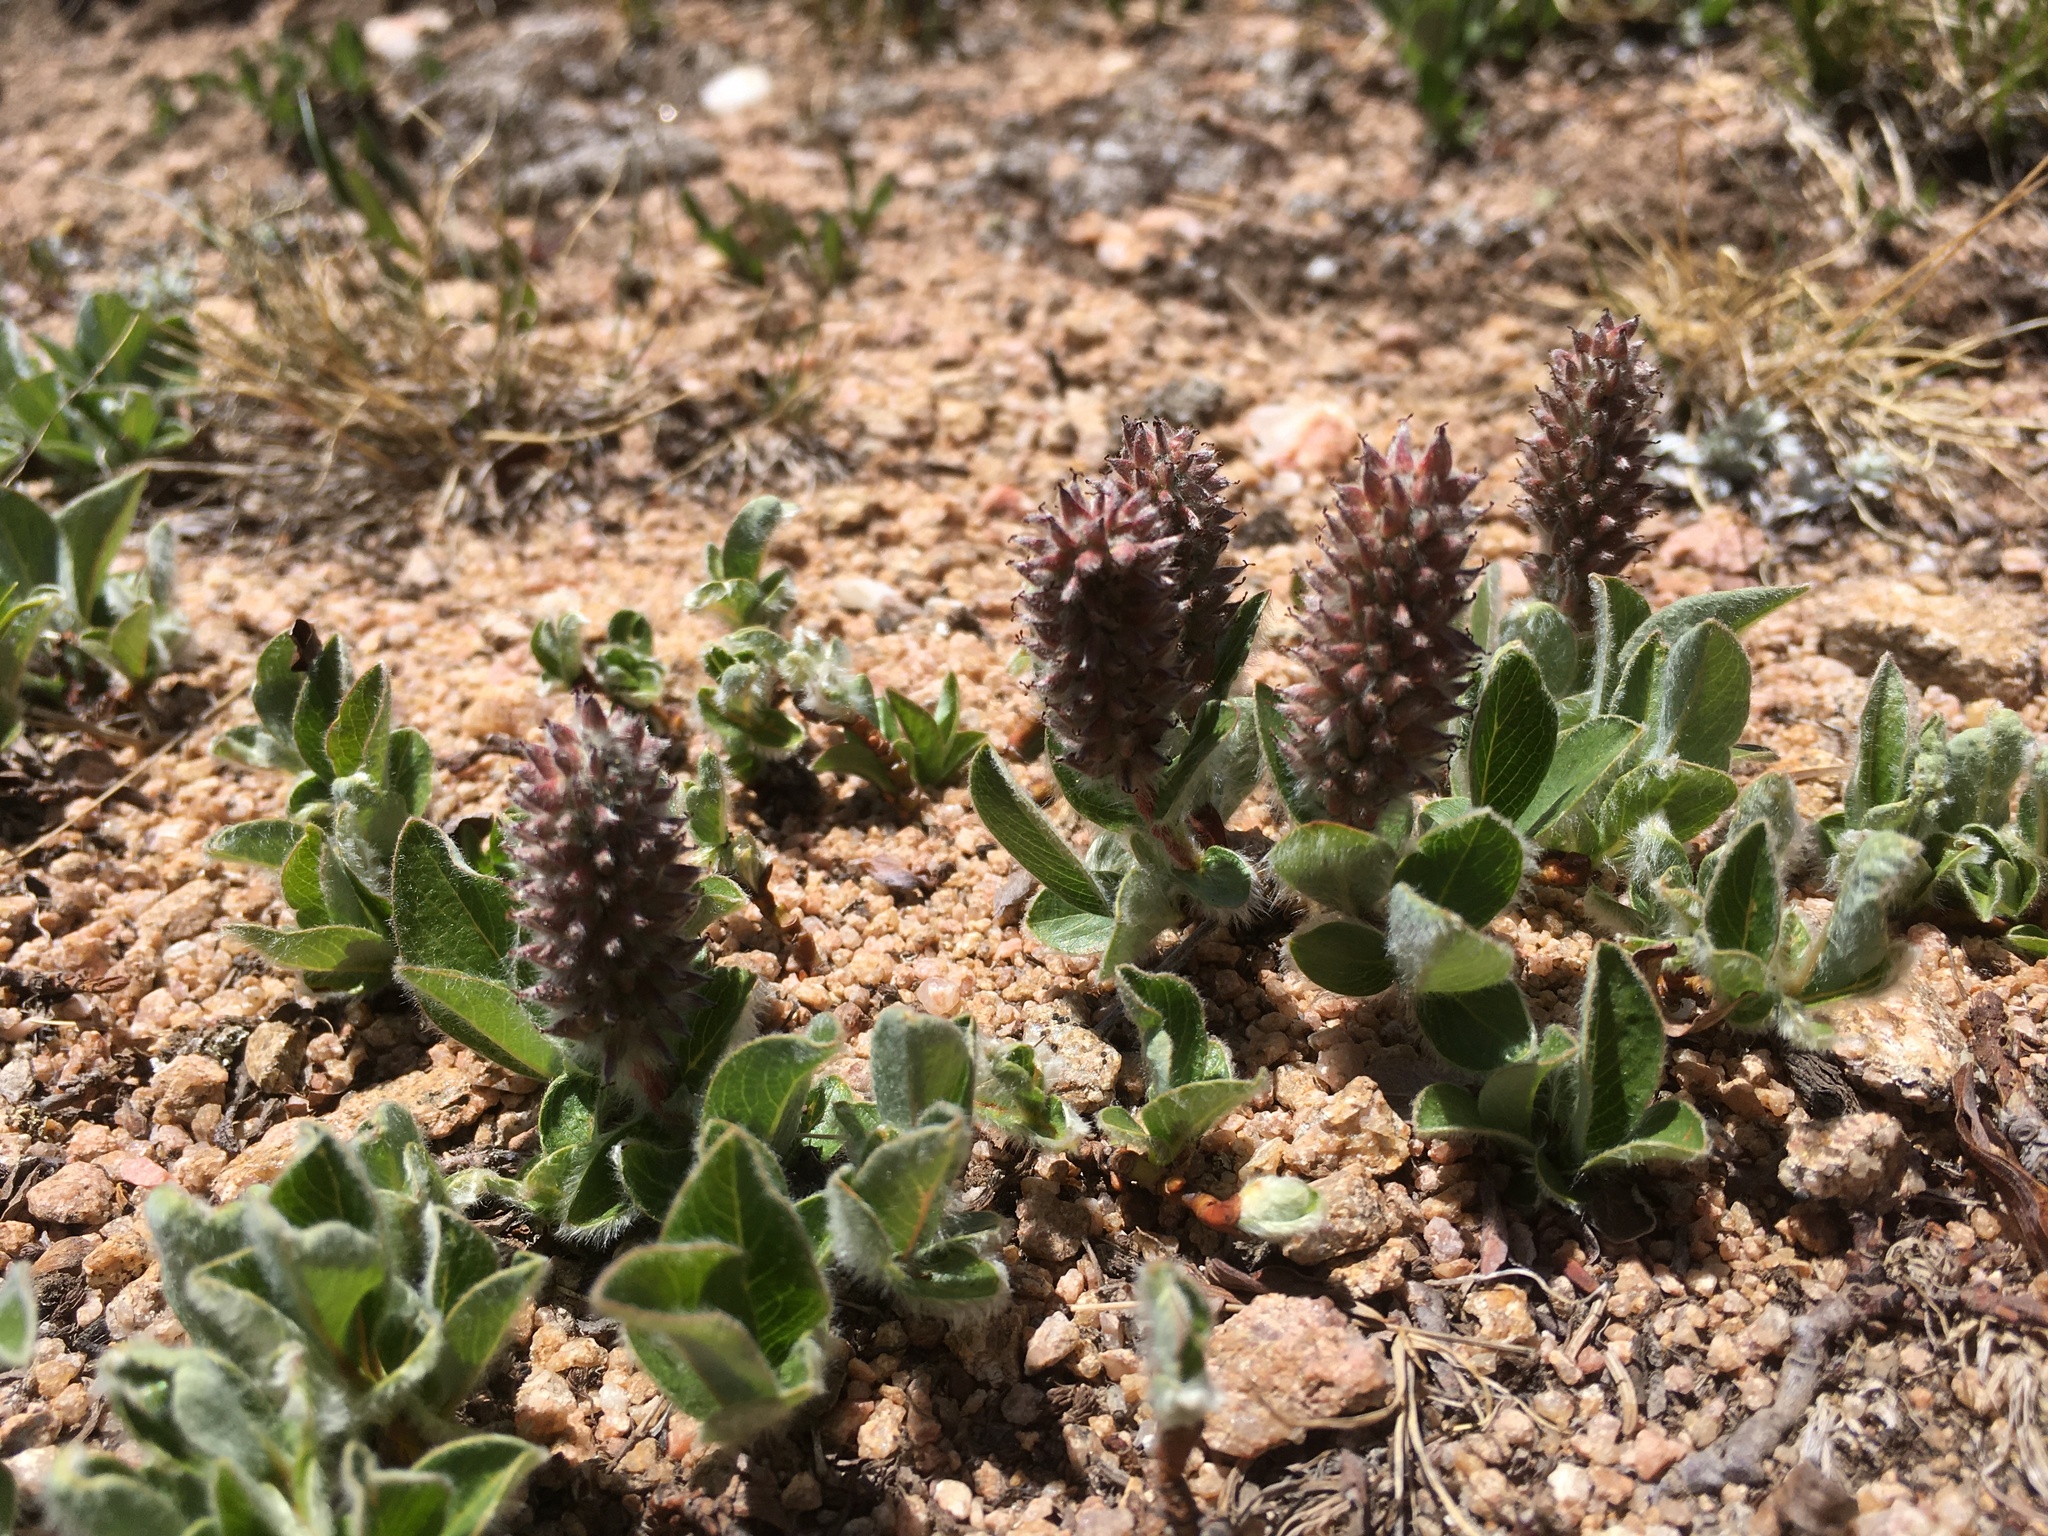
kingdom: Plantae
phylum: Tracheophyta
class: Magnoliopsida
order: Malpighiales
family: Salicaceae
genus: Salix
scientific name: Salix petrophila
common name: Rocky mountain willow
